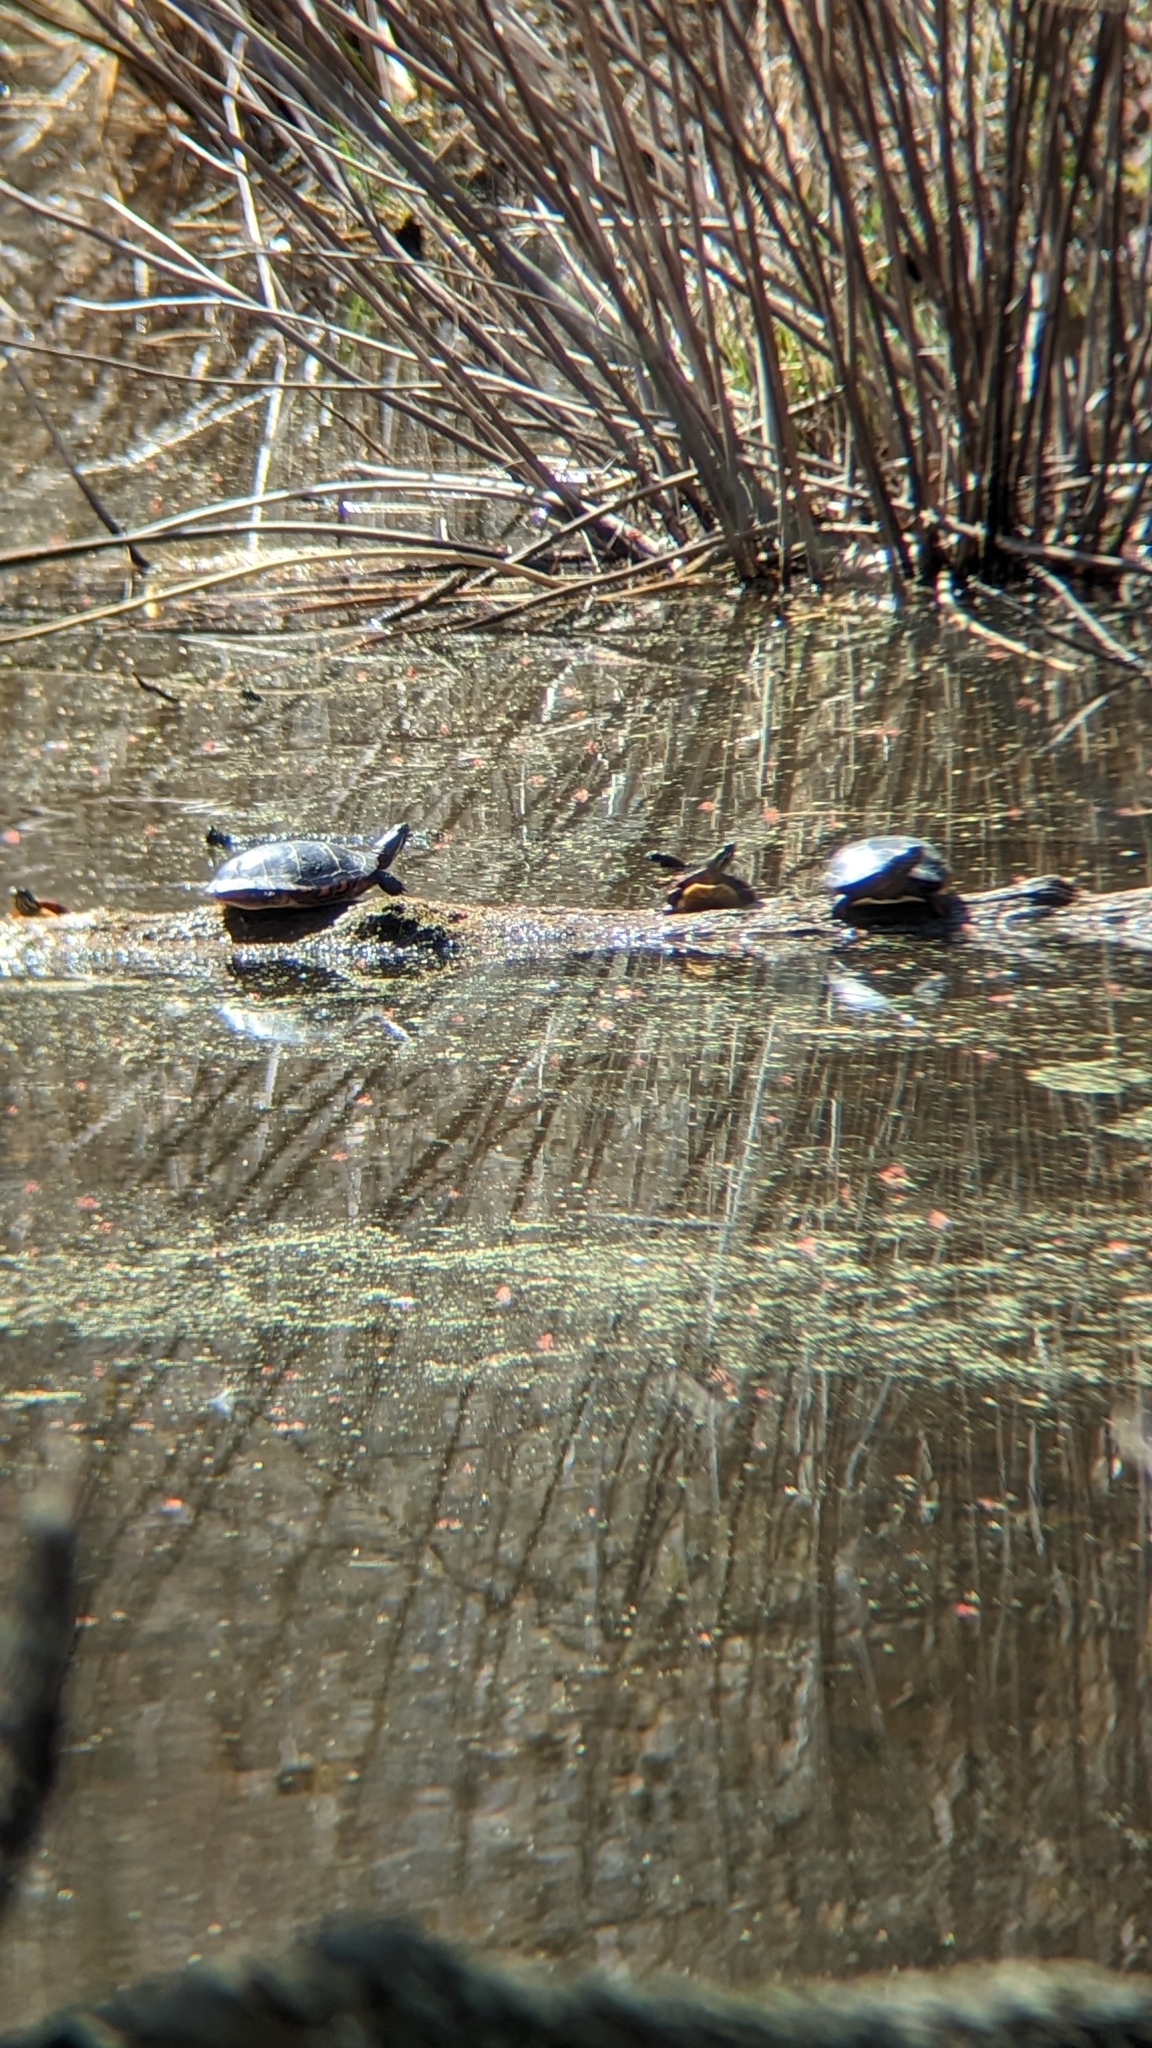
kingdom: Animalia
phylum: Chordata
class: Testudines
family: Emydidae
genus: Chrysemys
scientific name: Chrysemys picta
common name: Painted turtle
